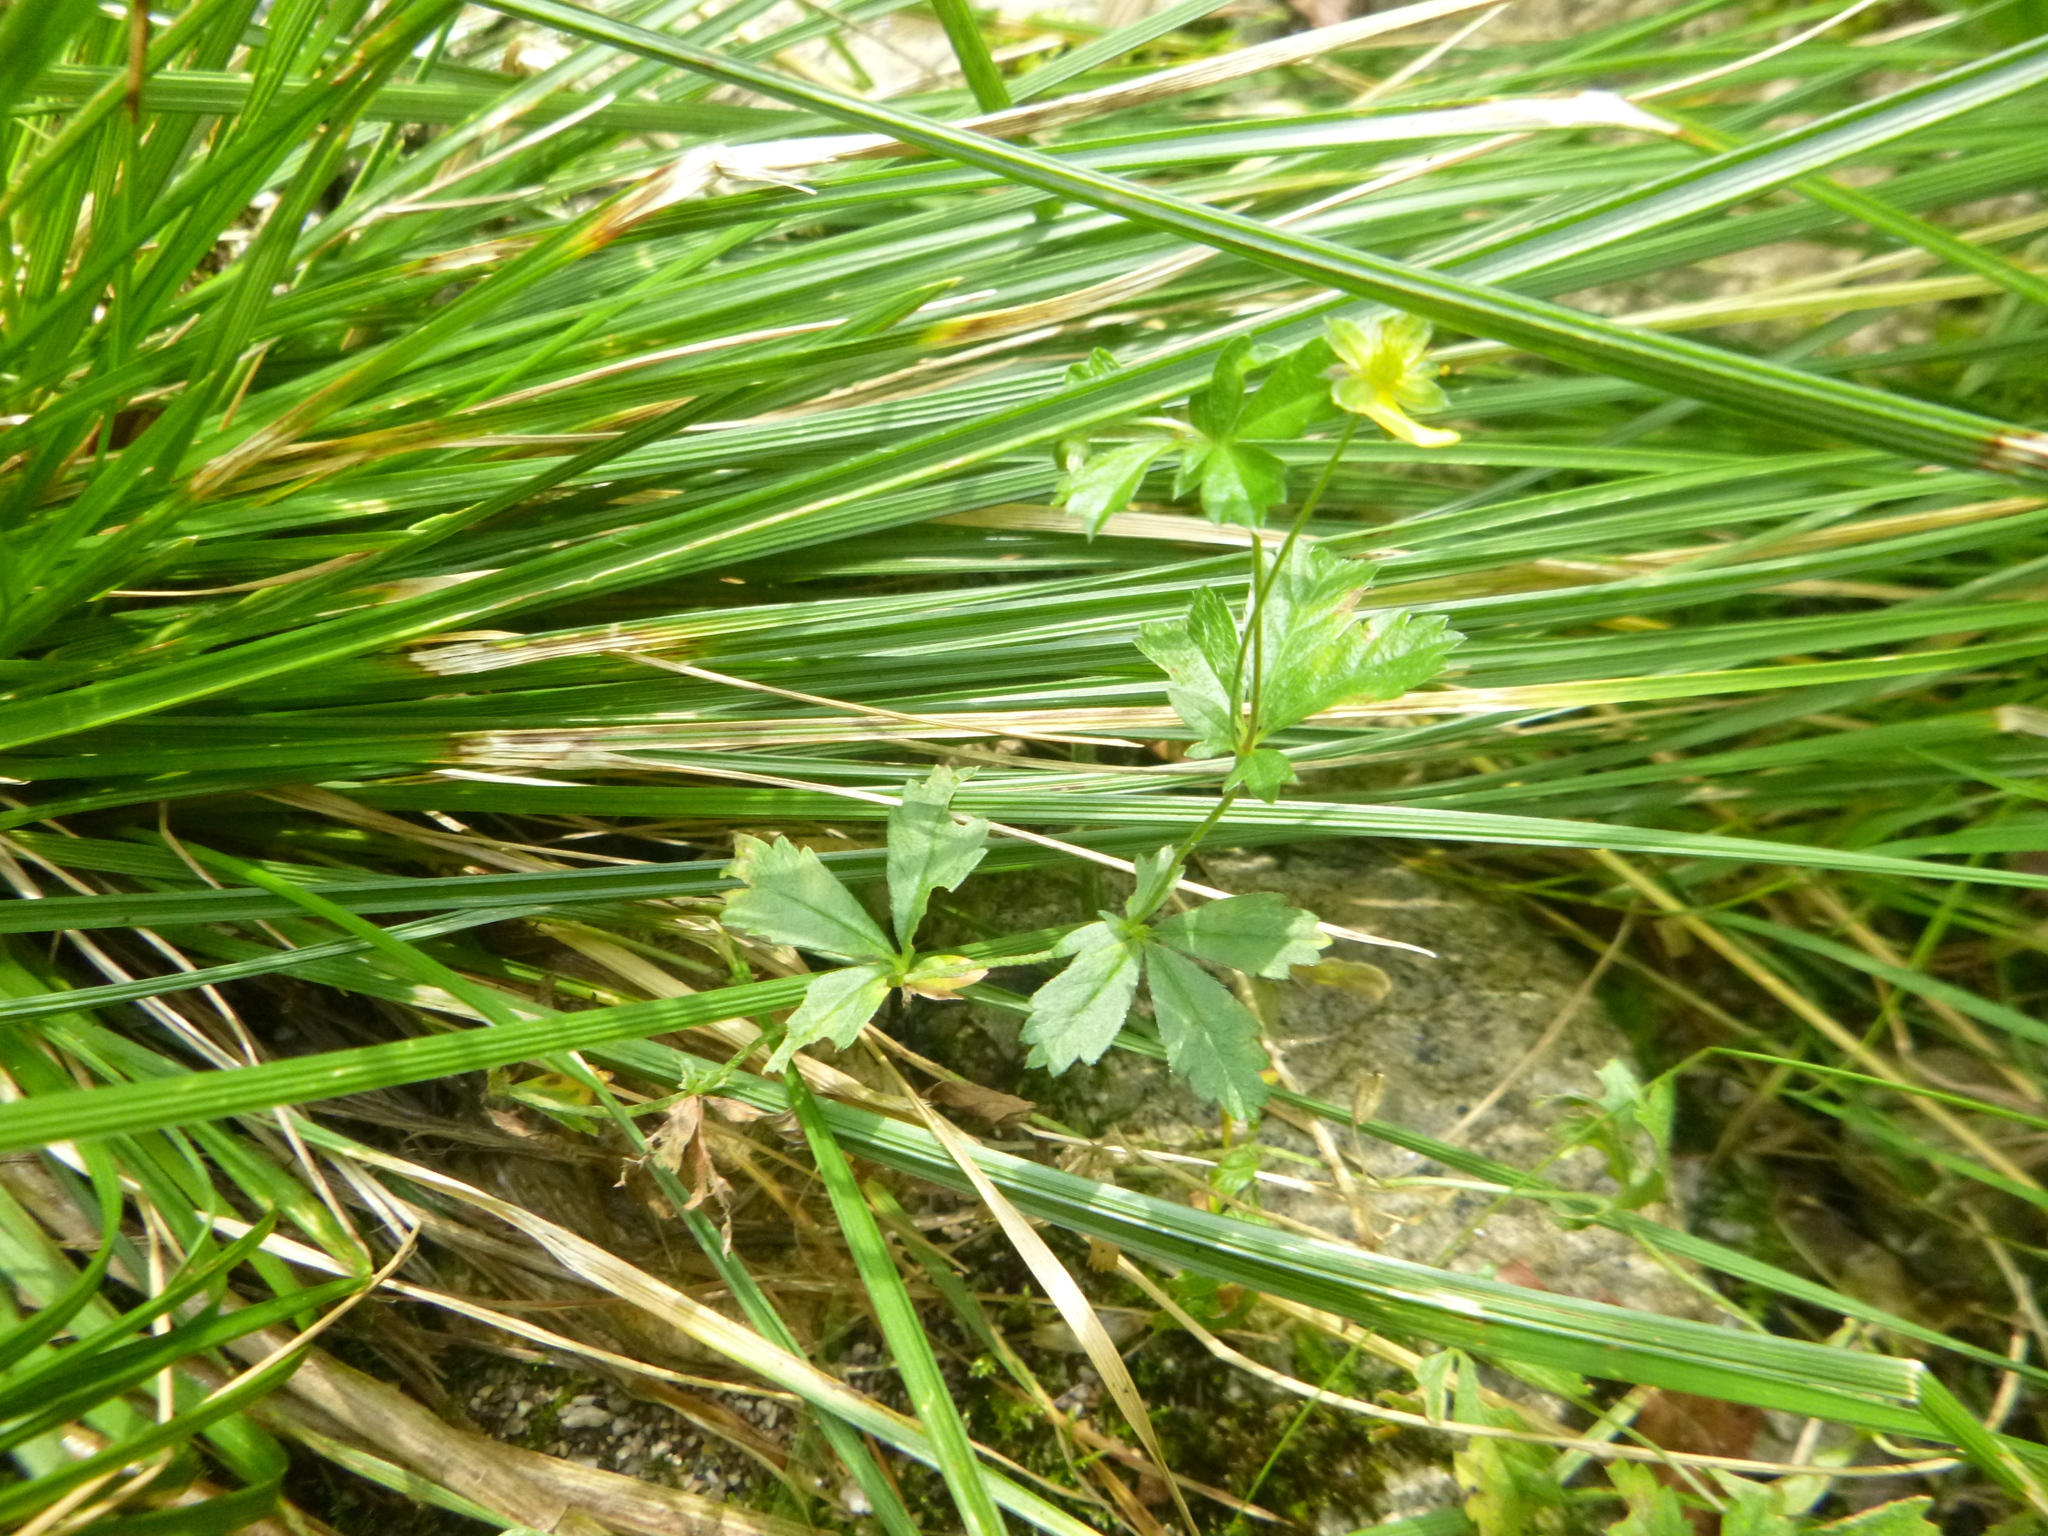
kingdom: Plantae
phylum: Tracheophyta
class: Magnoliopsida
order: Rosales
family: Rosaceae
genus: Potentilla
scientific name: Potentilla erecta
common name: Tormentil
